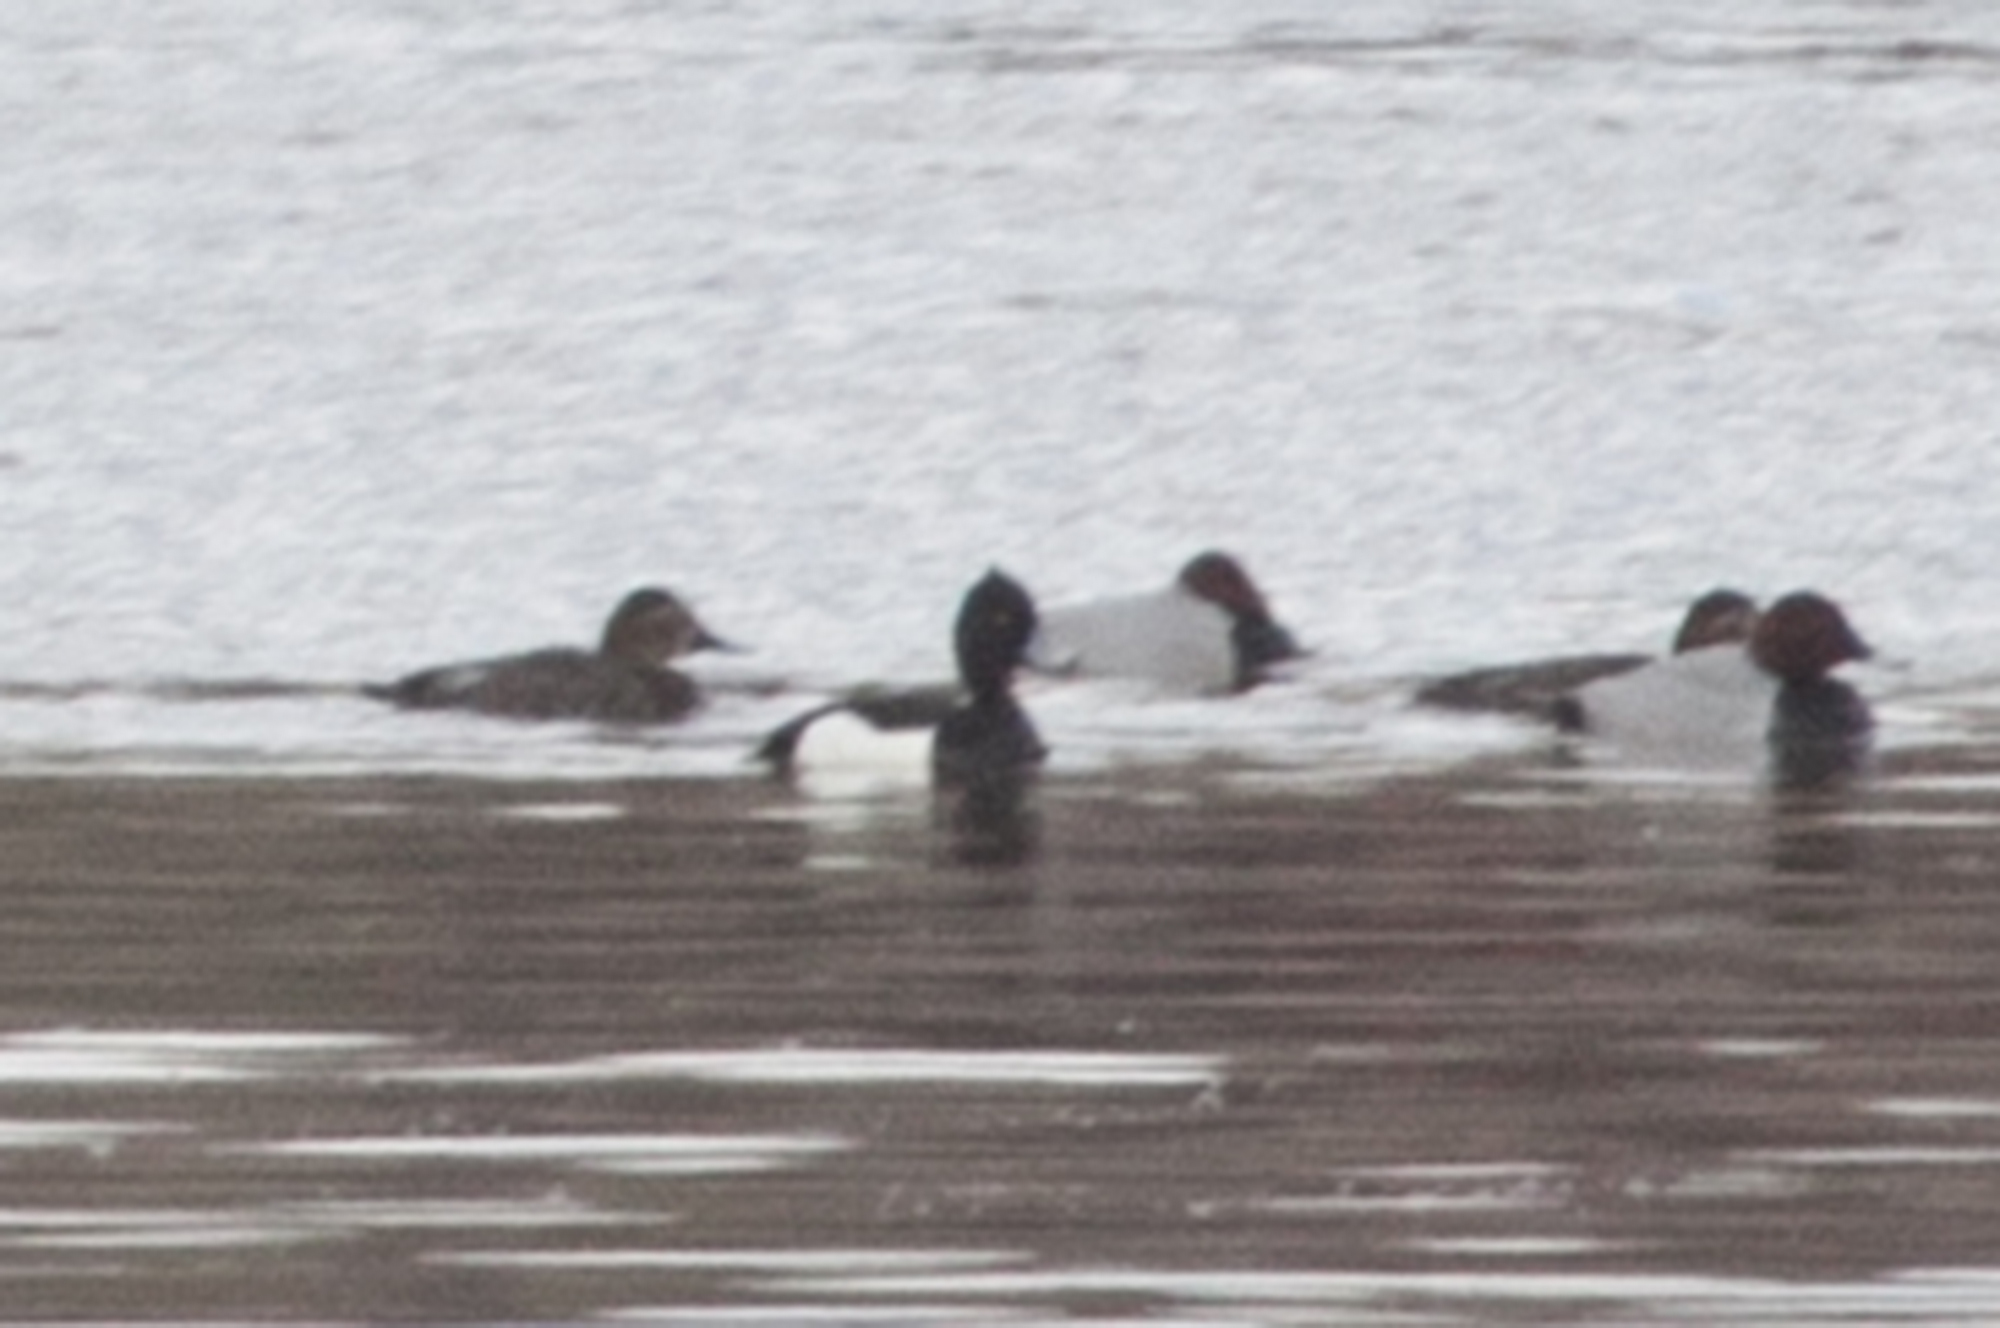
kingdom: Animalia
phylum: Chordata
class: Aves
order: Anseriformes
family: Anatidae
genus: Aythya
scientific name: Aythya fuligula
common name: Tufted duck
